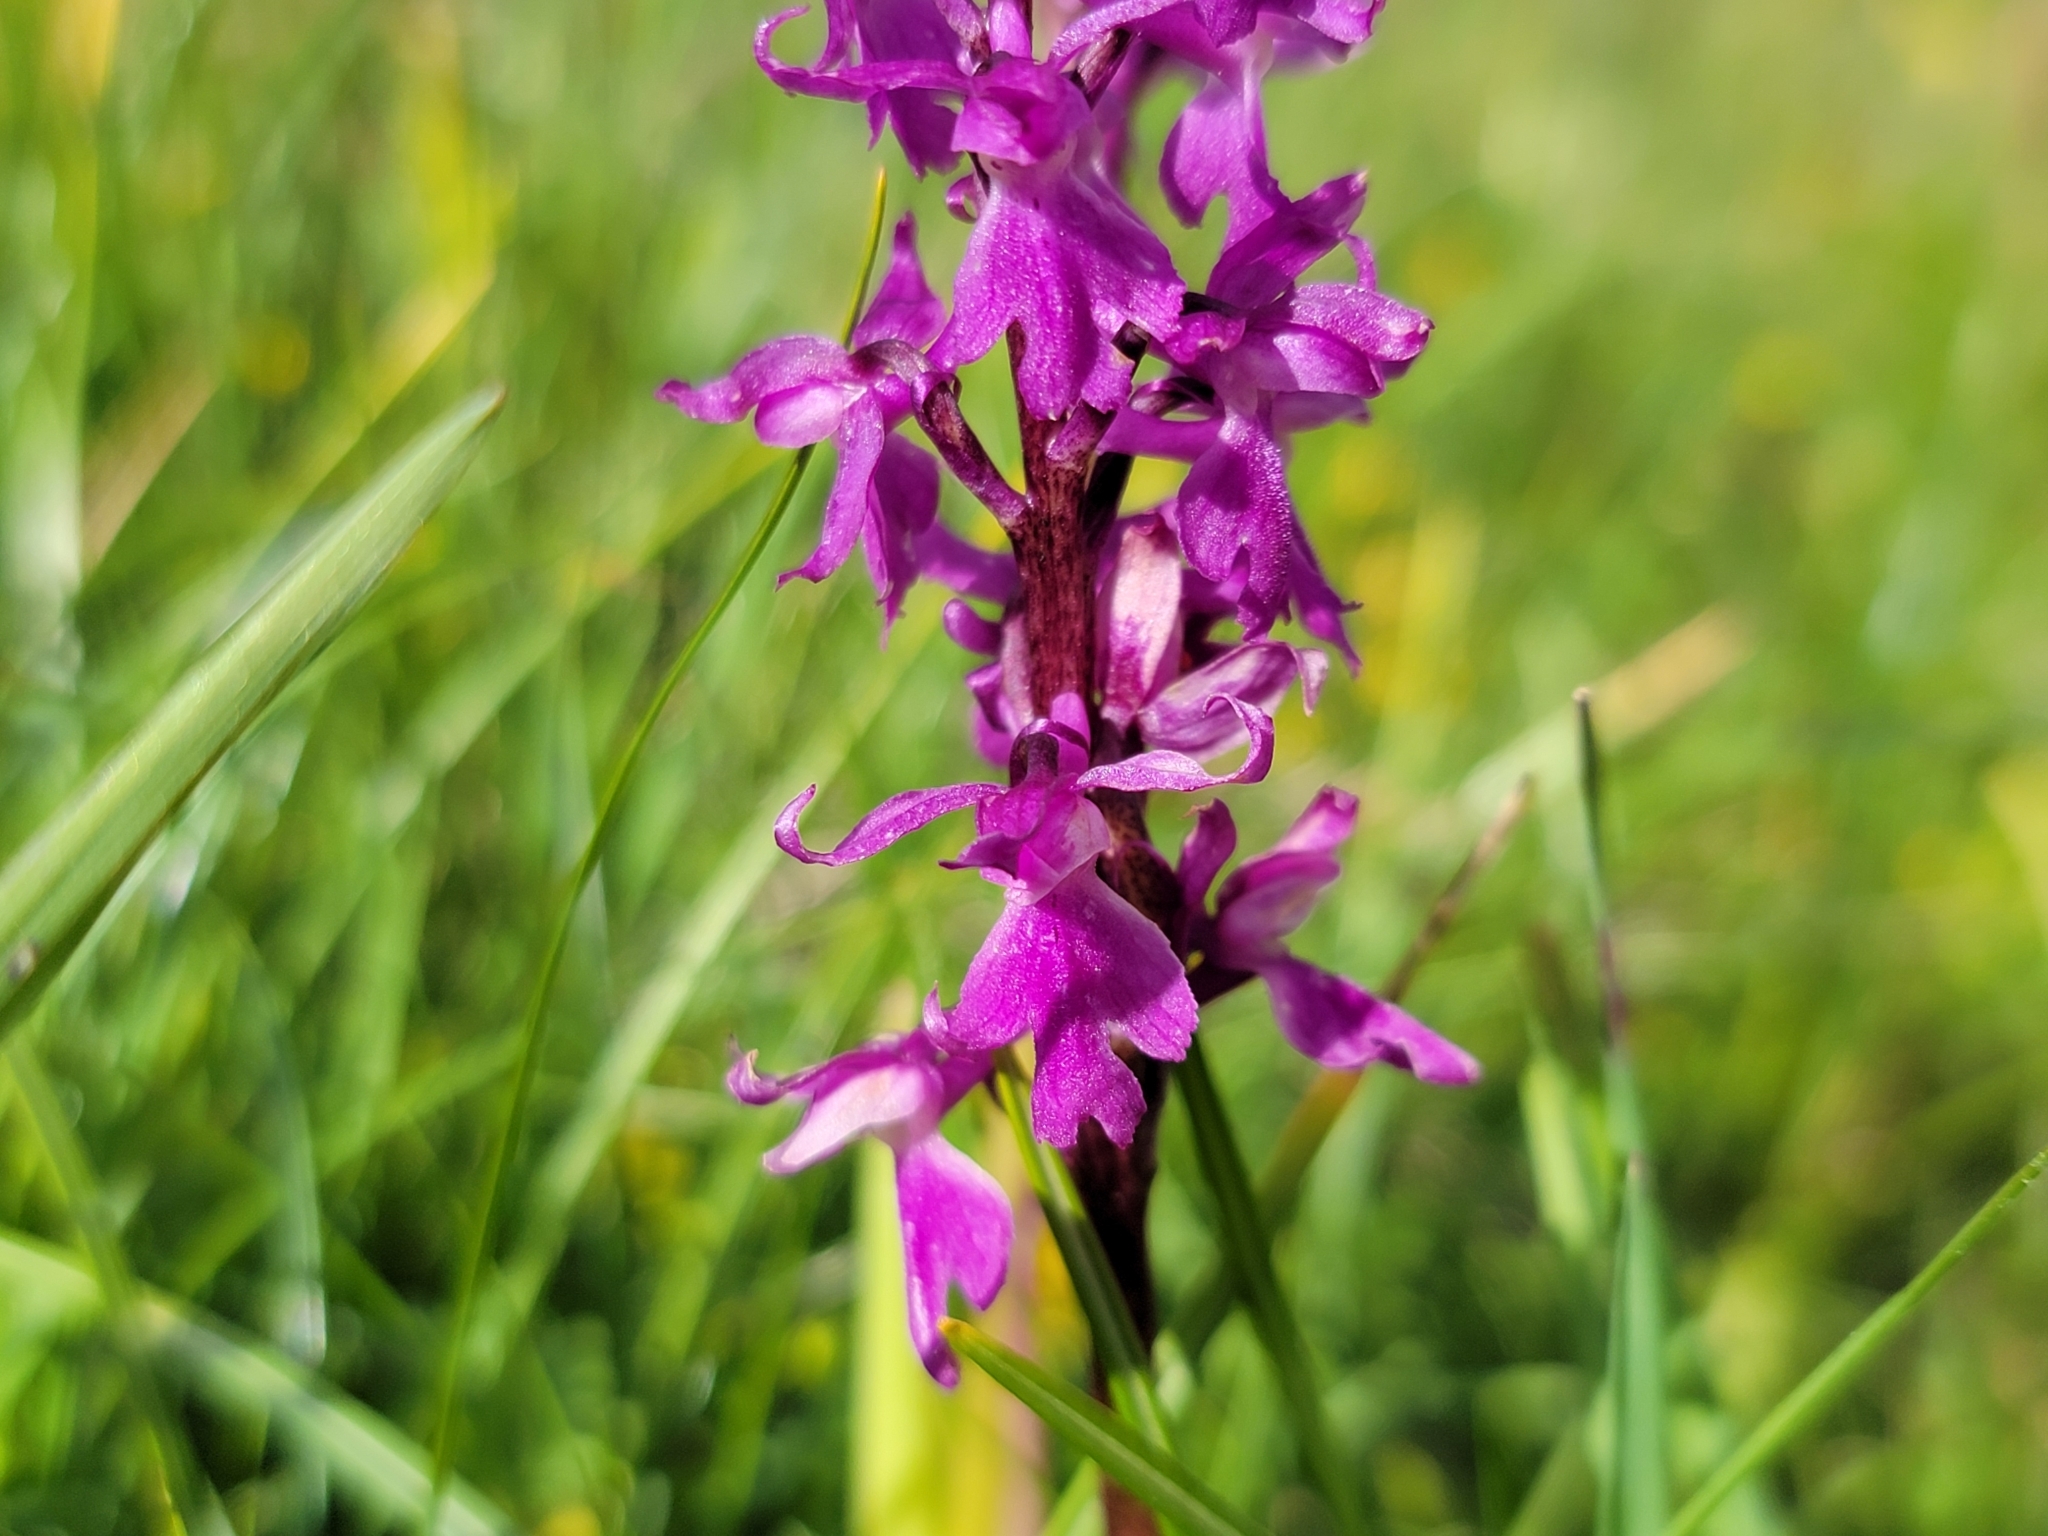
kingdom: Plantae
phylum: Tracheophyta
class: Liliopsida
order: Asparagales
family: Orchidaceae
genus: Orchis
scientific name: Orchis mascula
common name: Early-purple orchid
